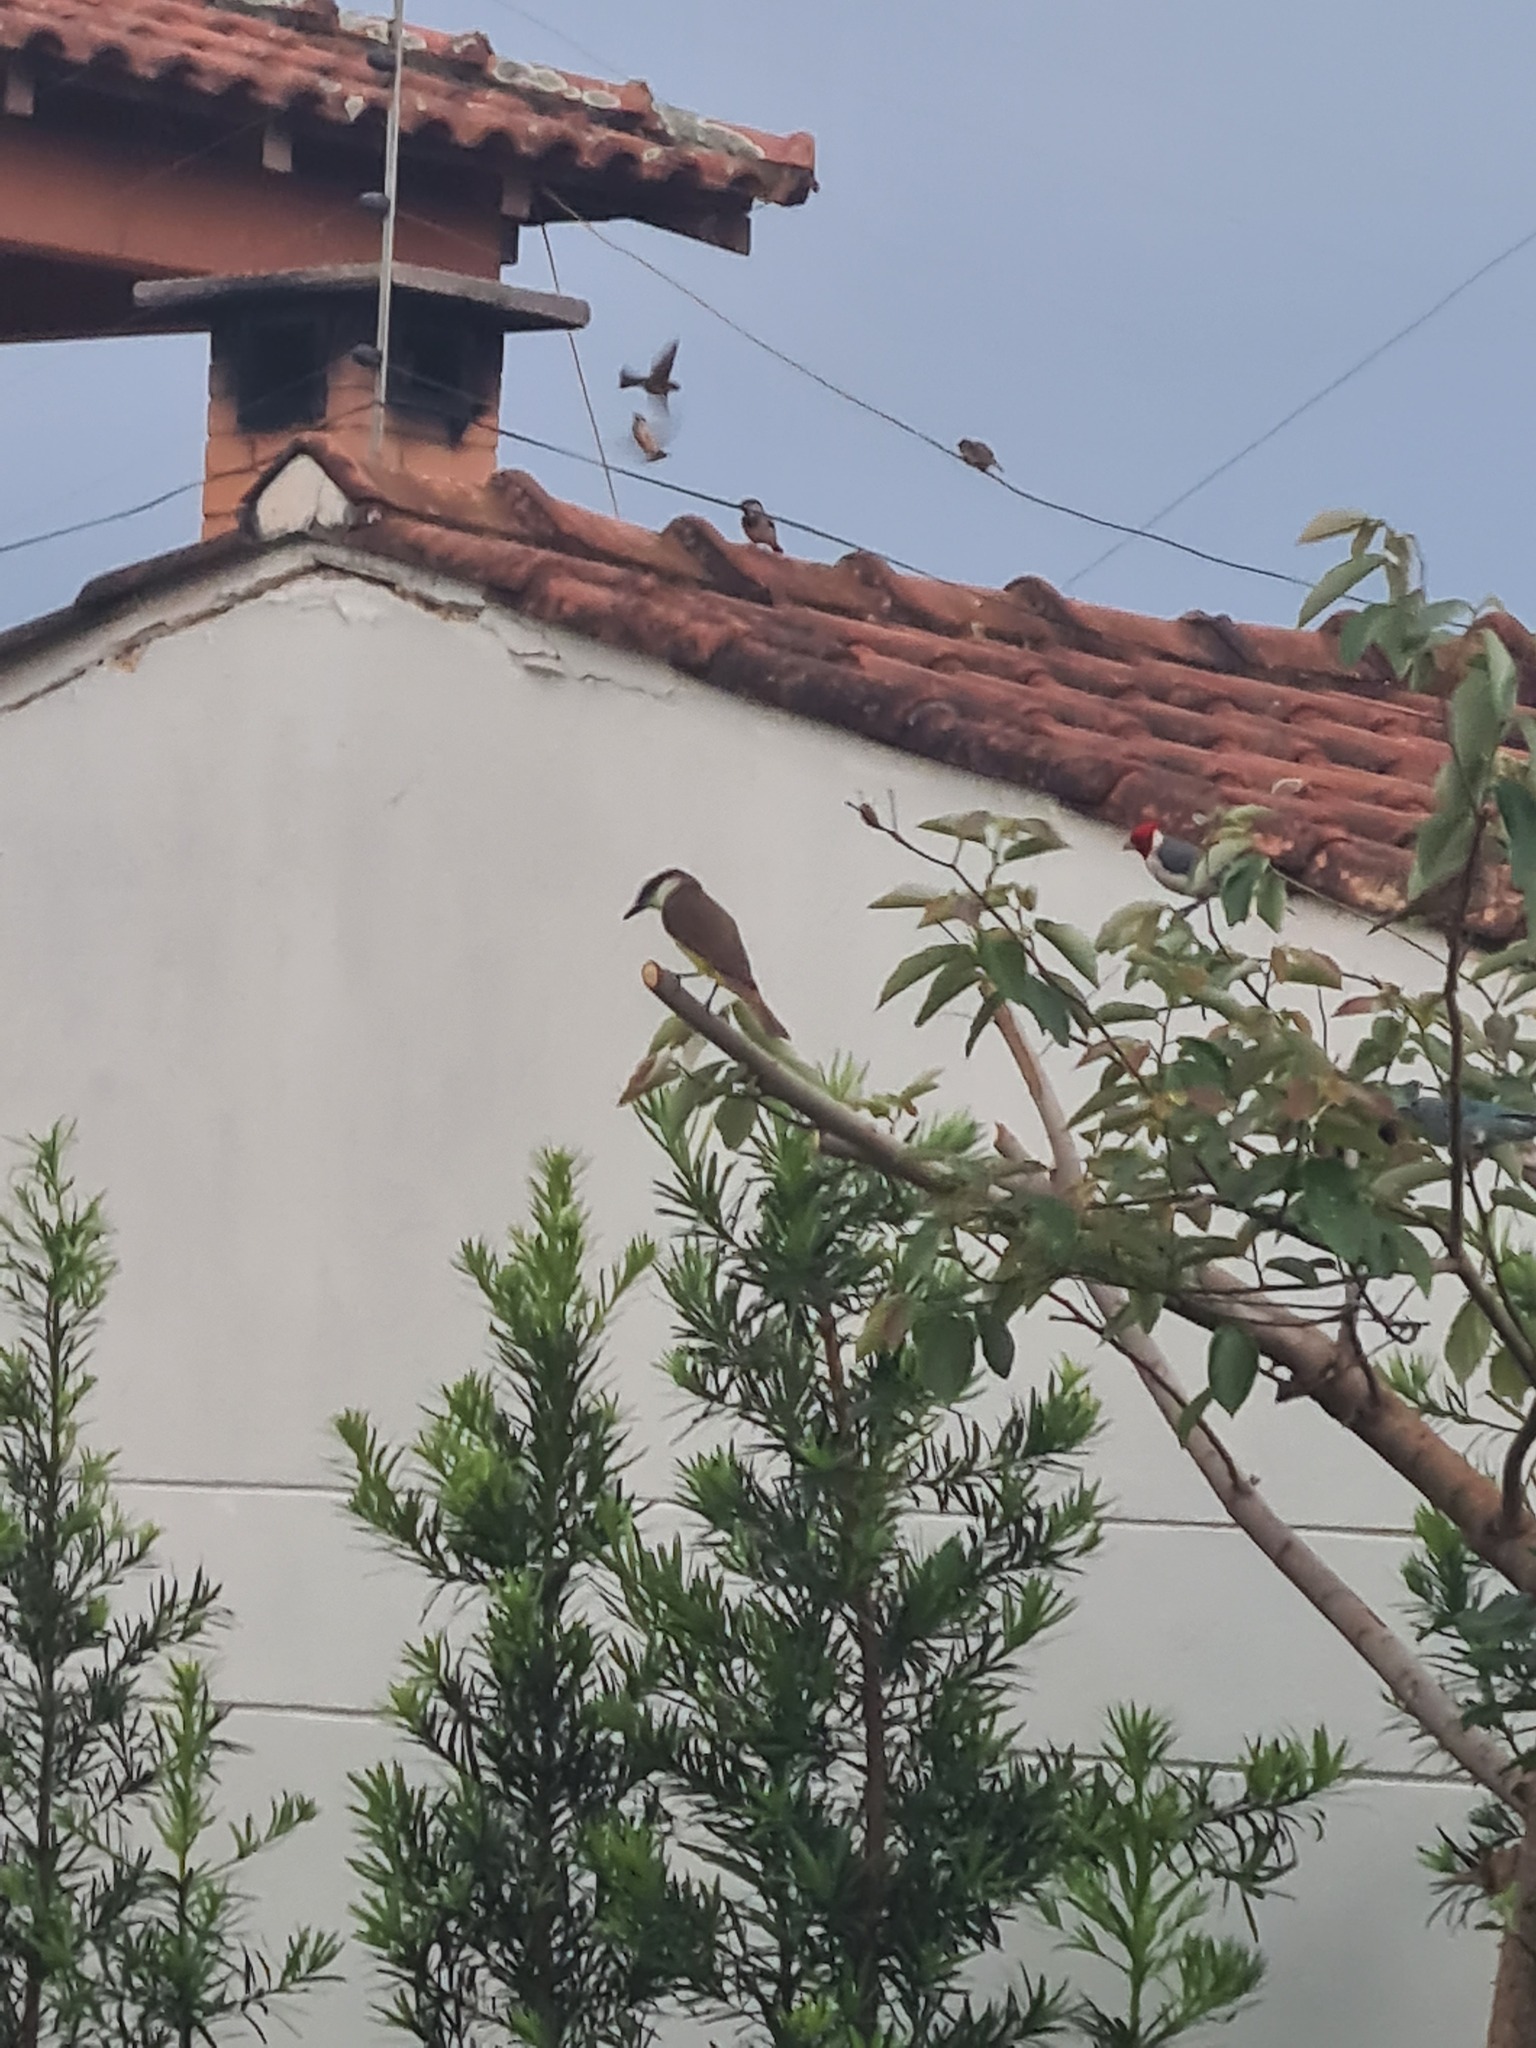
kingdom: Animalia
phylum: Chordata
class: Aves
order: Passeriformes
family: Tyrannidae
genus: Pitangus
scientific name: Pitangus sulphuratus
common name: Great kiskadee
